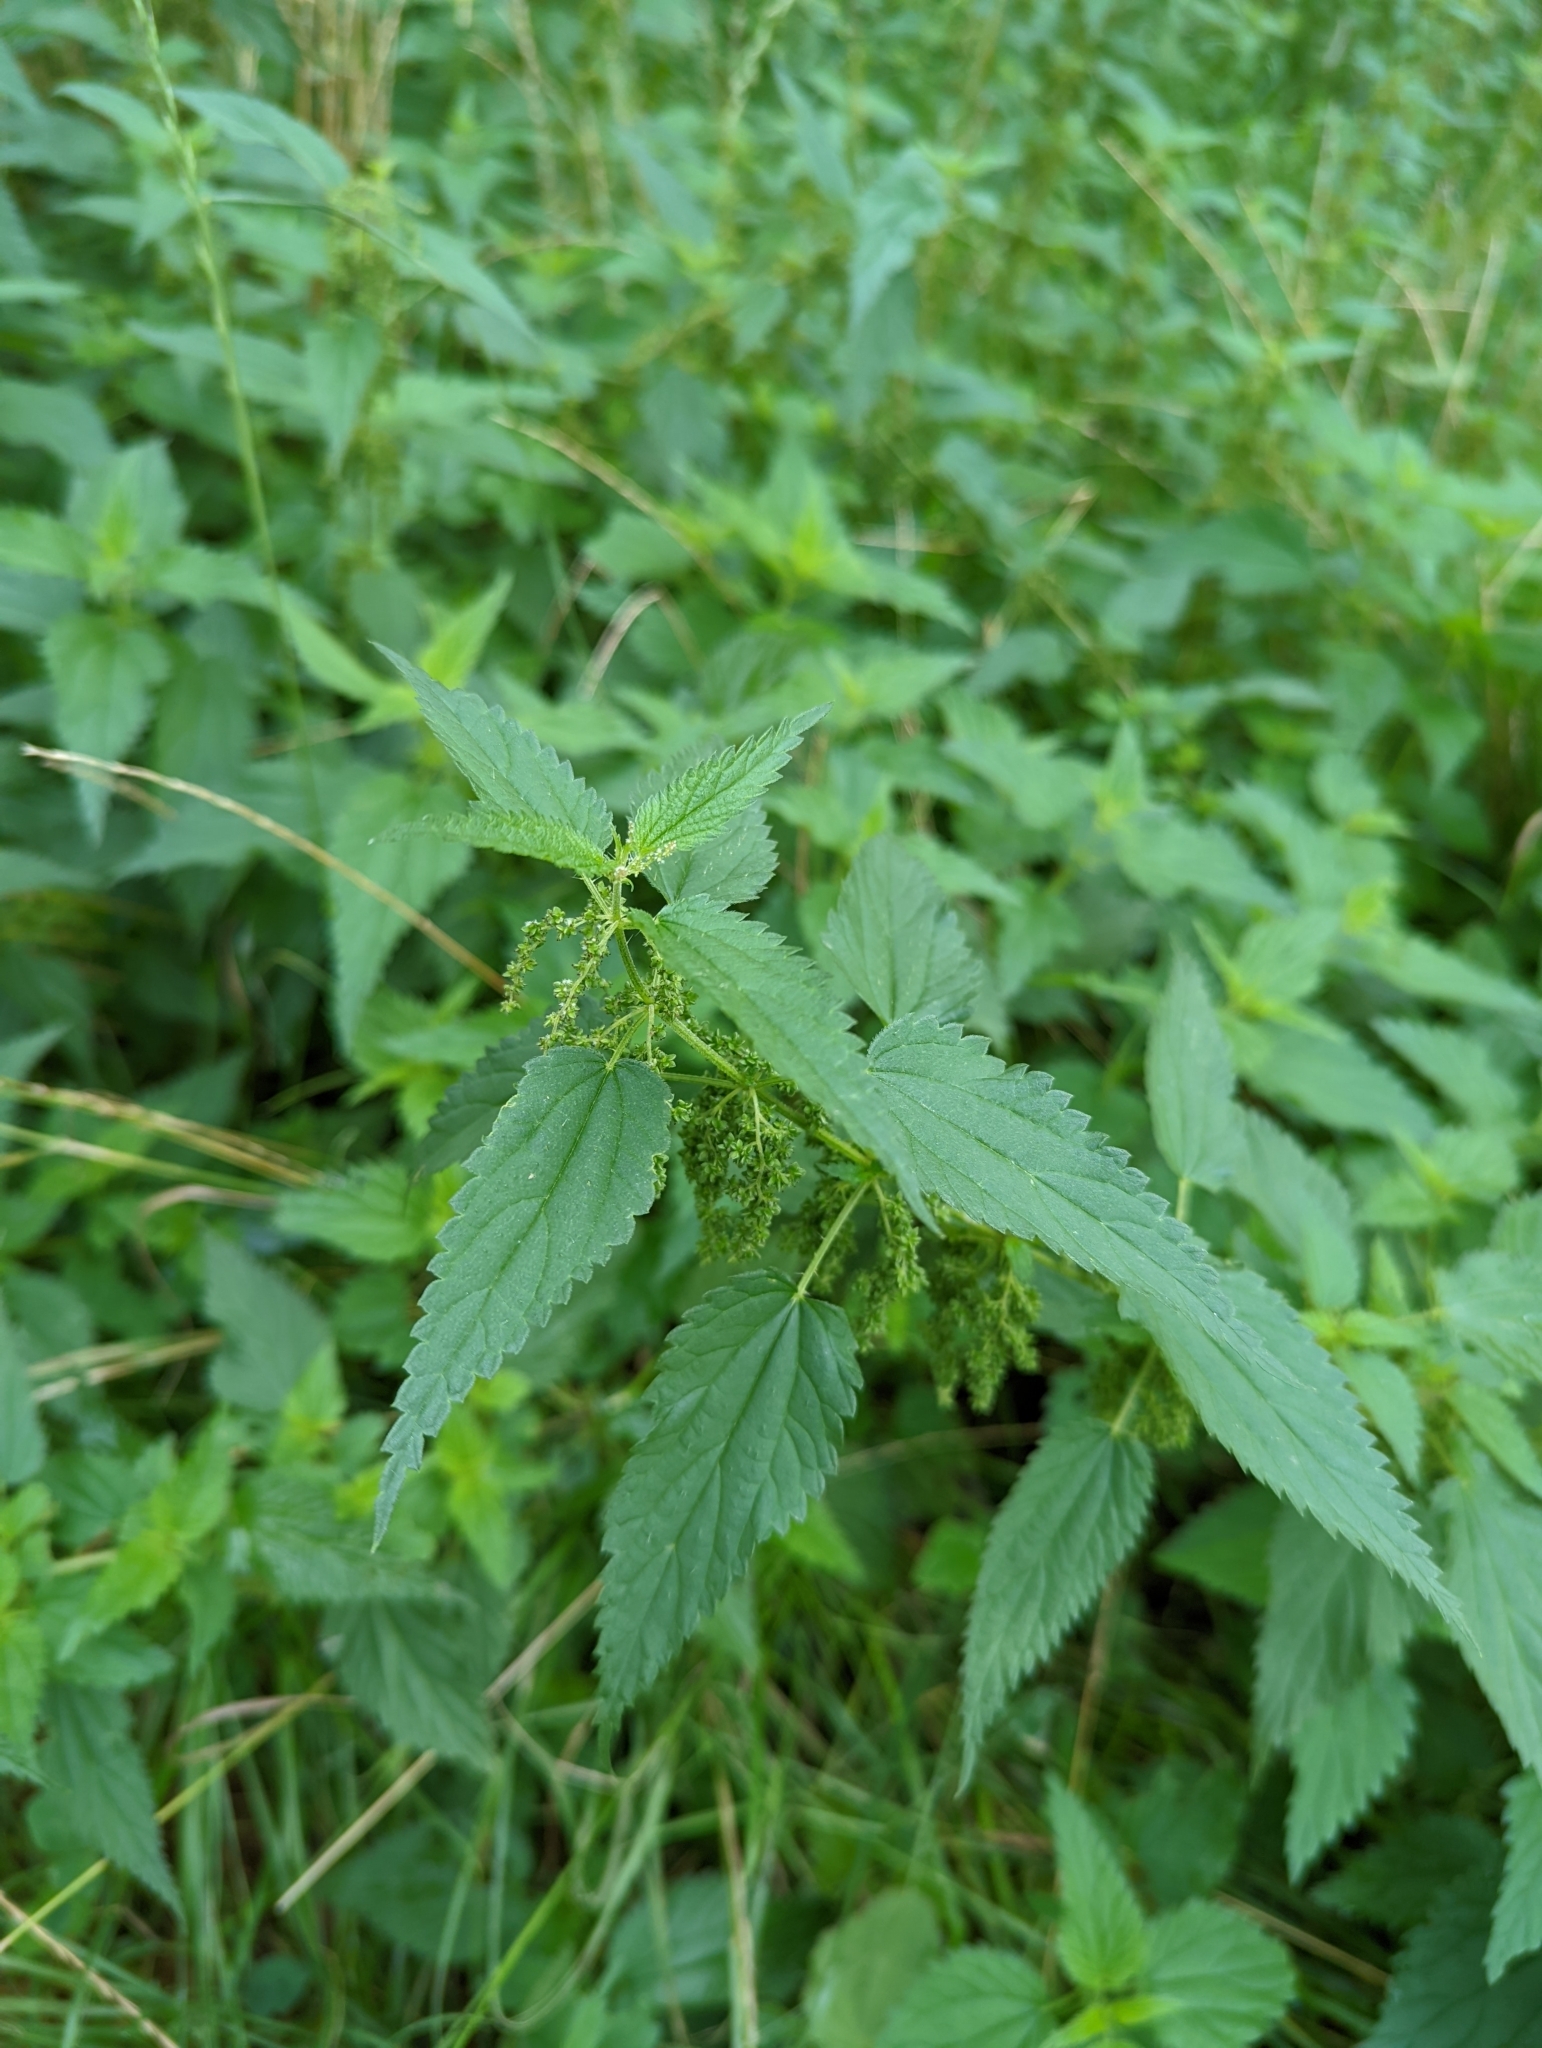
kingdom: Plantae
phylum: Tracheophyta
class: Magnoliopsida
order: Rosales
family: Urticaceae
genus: Urtica
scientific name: Urtica dioica
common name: Common nettle
